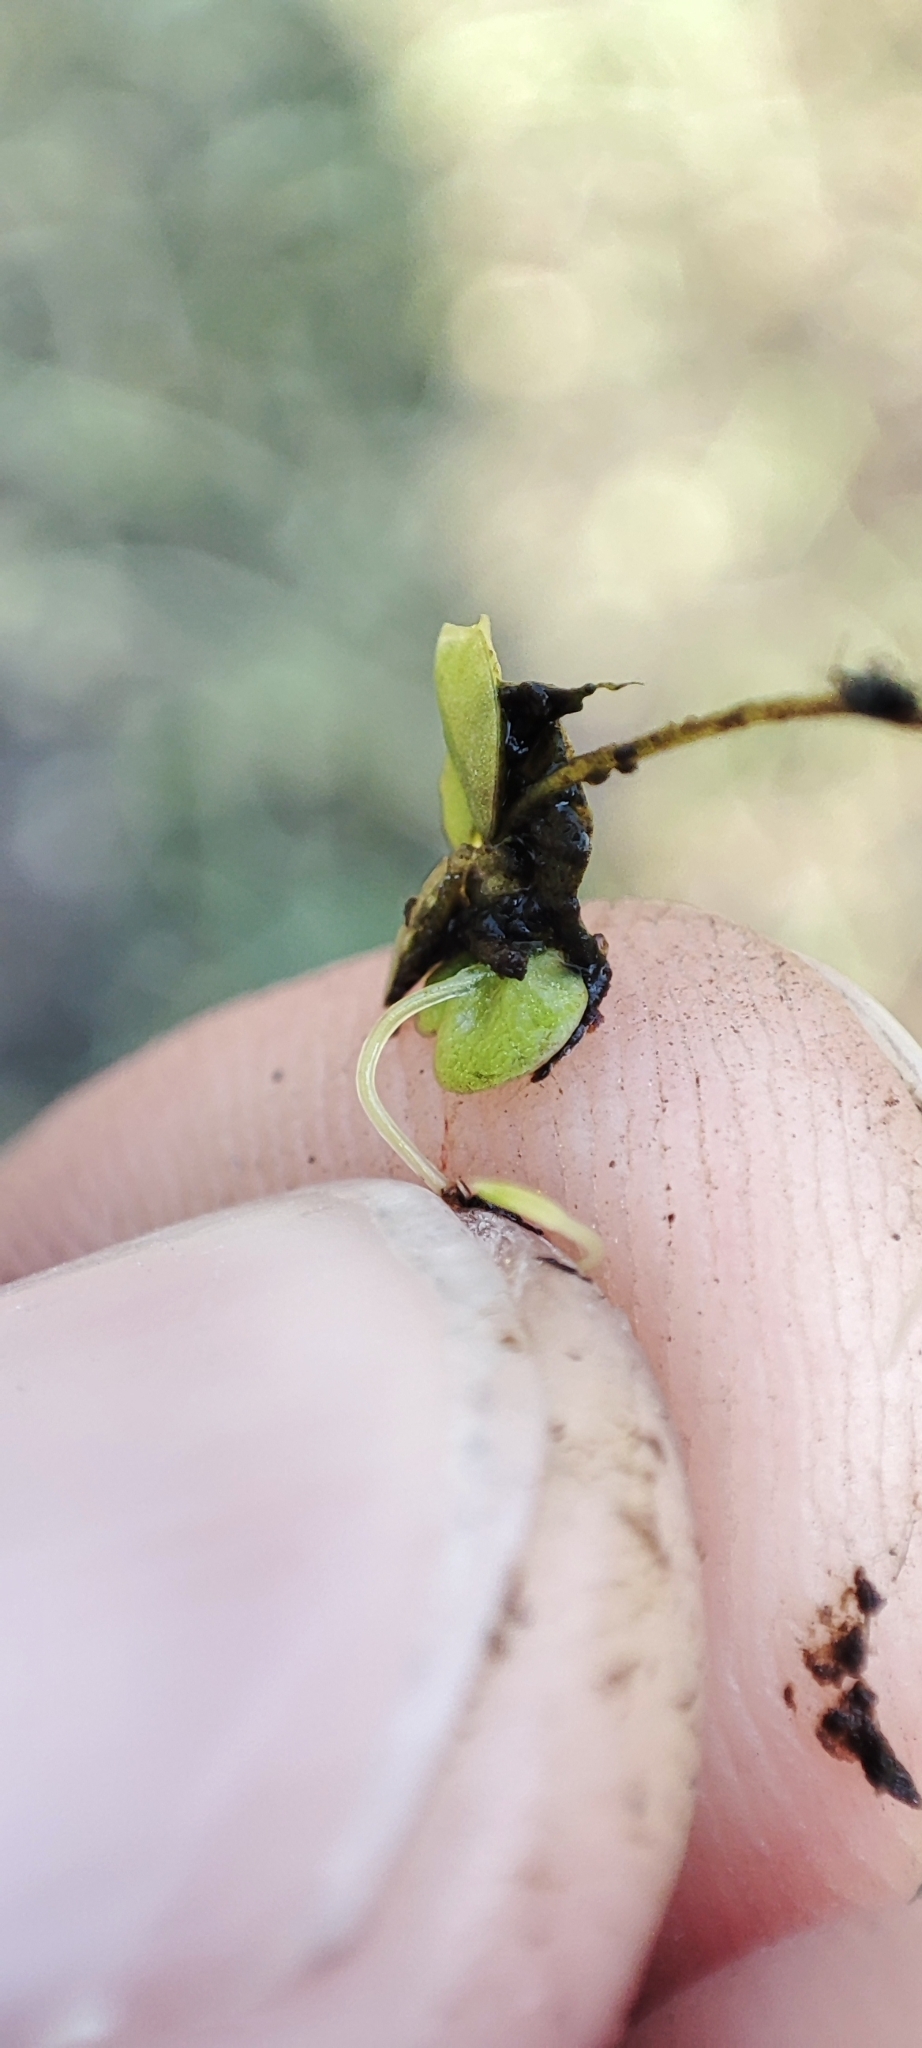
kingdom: Plantae
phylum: Tracheophyta
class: Liliopsida
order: Alismatales
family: Araceae
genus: Lemna
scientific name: Lemna gibba
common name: Fat duckweed
